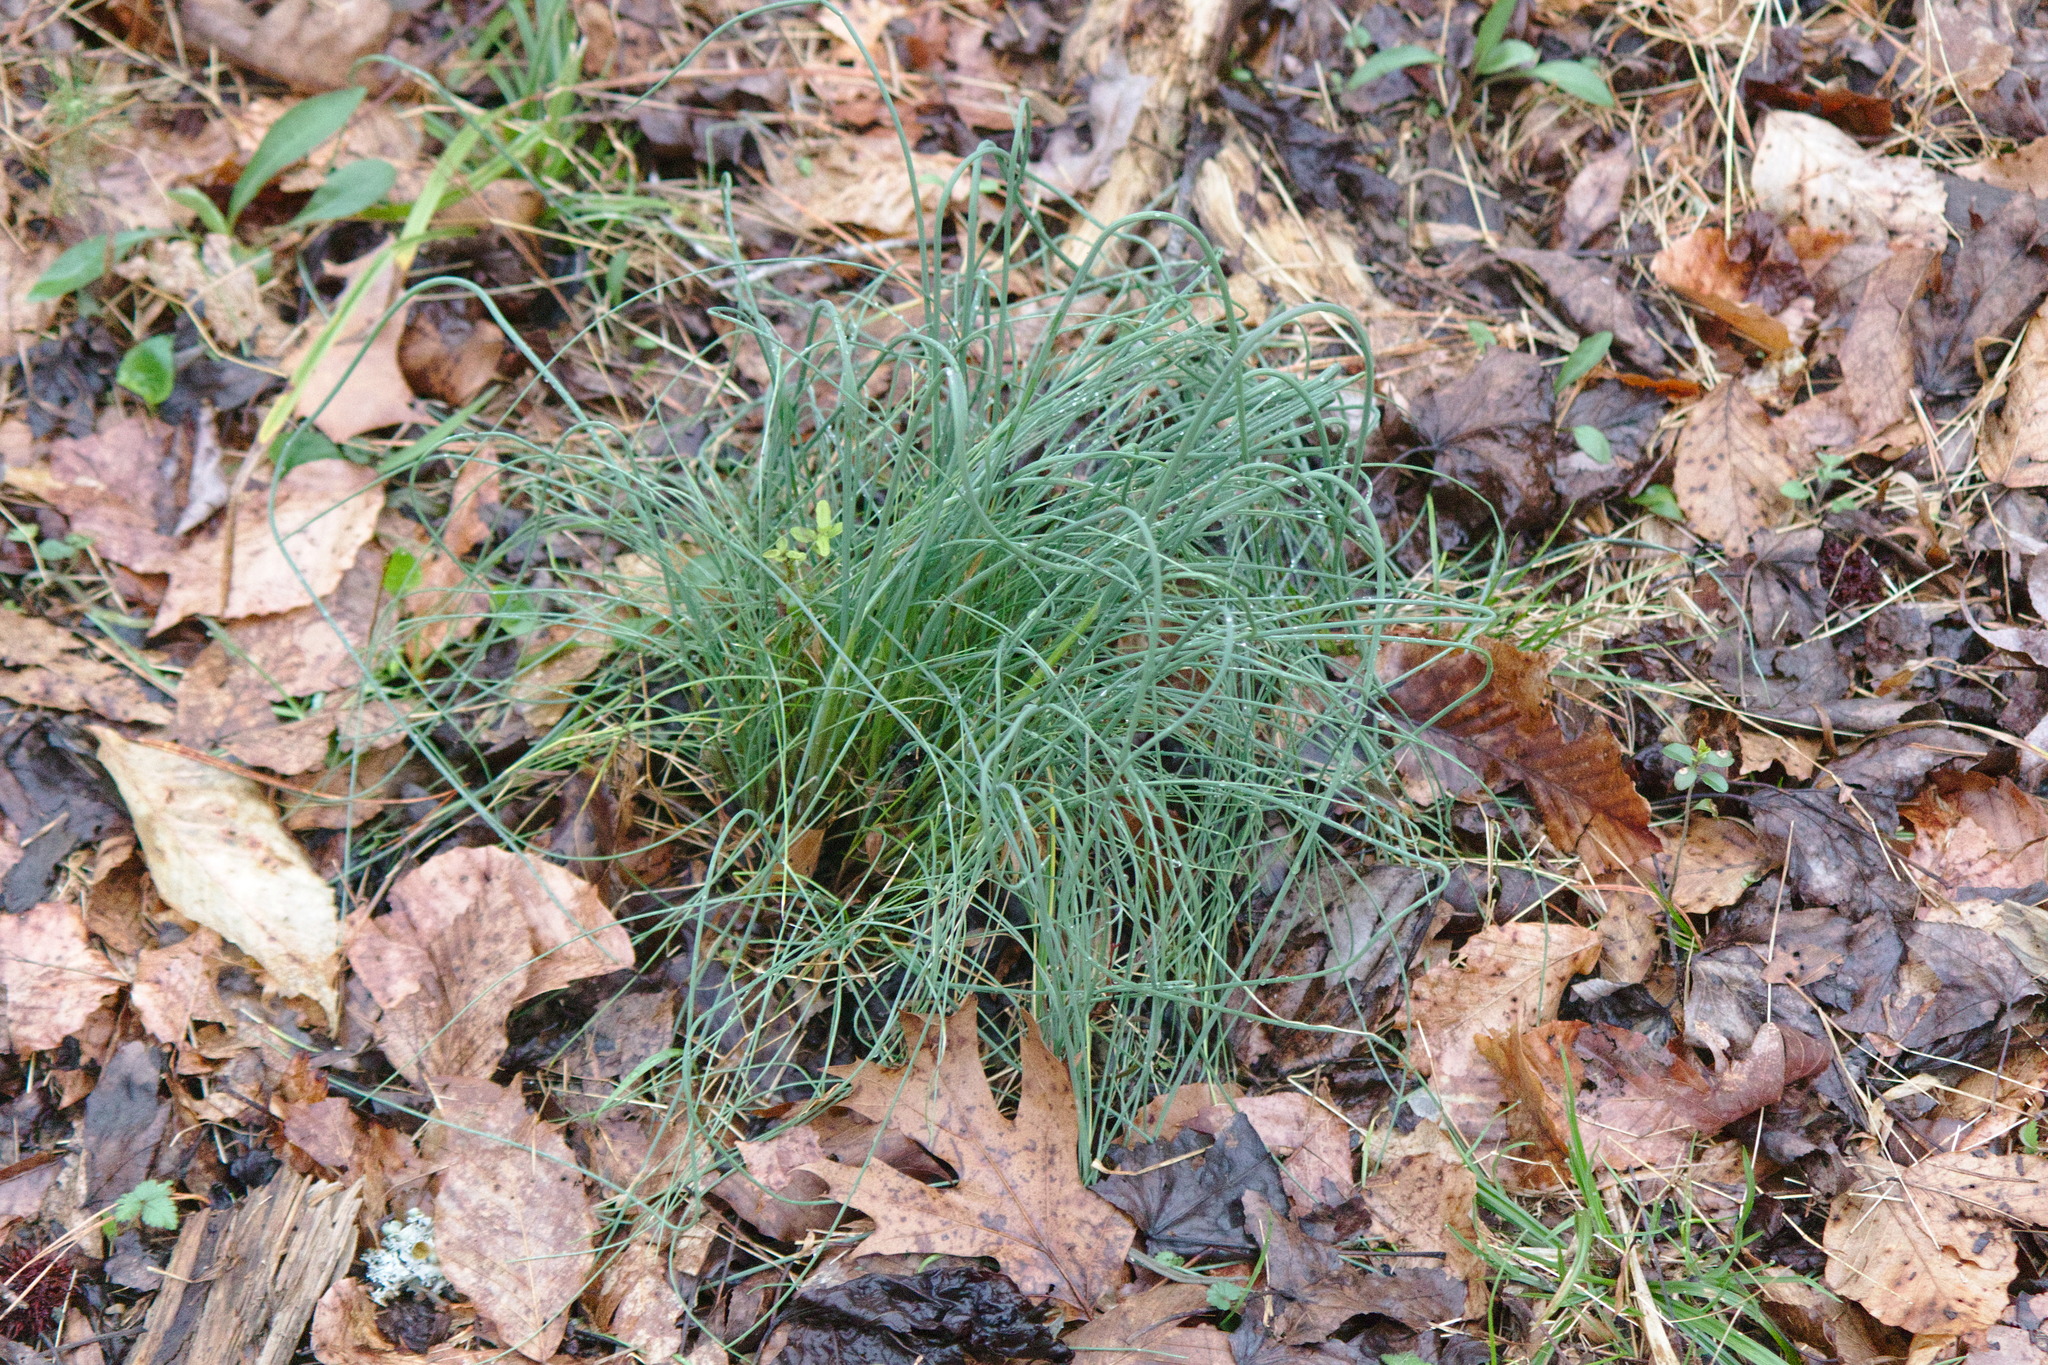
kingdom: Plantae
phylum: Tracheophyta
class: Liliopsida
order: Asparagales
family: Amaryllidaceae
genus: Allium
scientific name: Allium vineale
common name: Crow garlic
